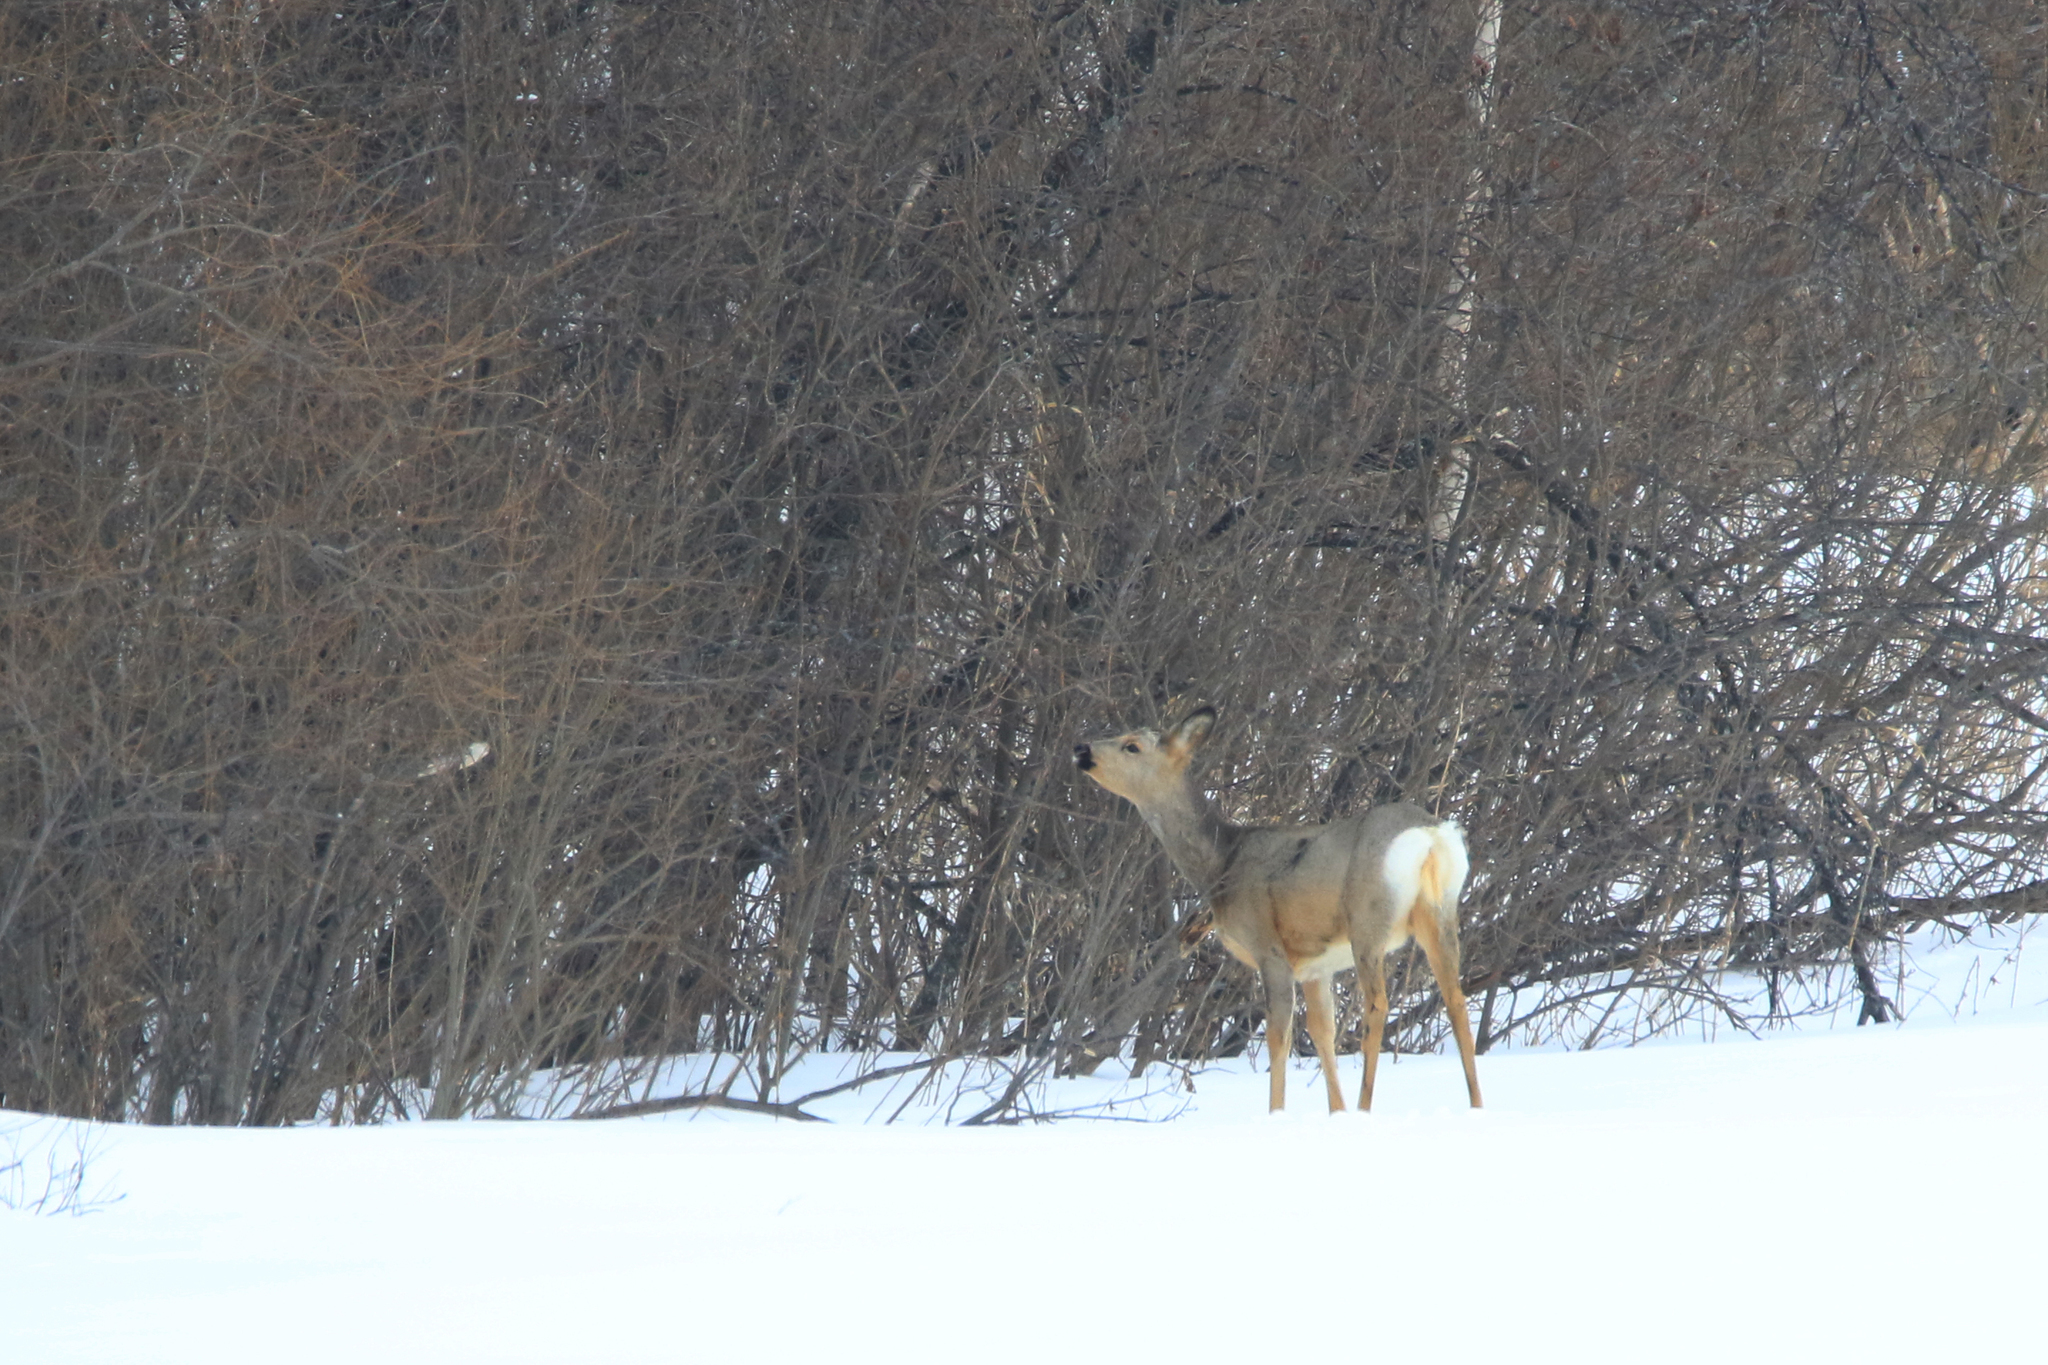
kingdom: Animalia
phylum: Chordata
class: Mammalia
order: Artiodactyla
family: Cervidae
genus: Capreolus
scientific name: Capreolus pygargus
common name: Siberian roe
